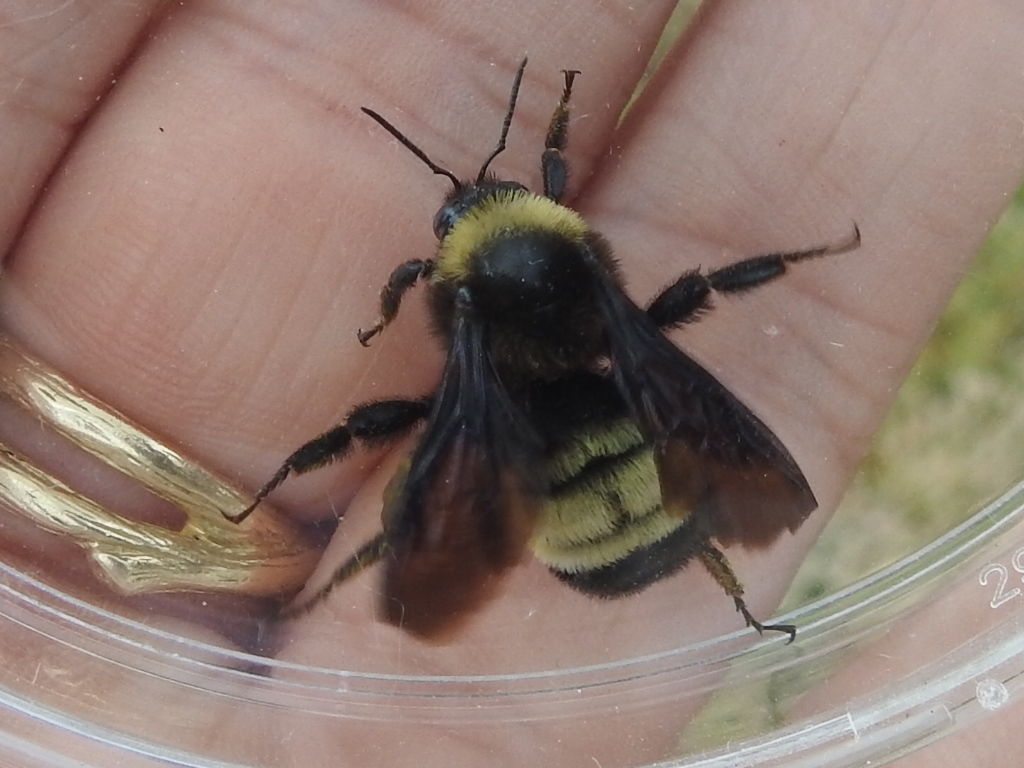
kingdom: Animalia
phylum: Arthropoda
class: Insecta
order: Hymenoptera
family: Apidae
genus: Bombus
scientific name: Bombus pensylvanicus
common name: Bumble bee
